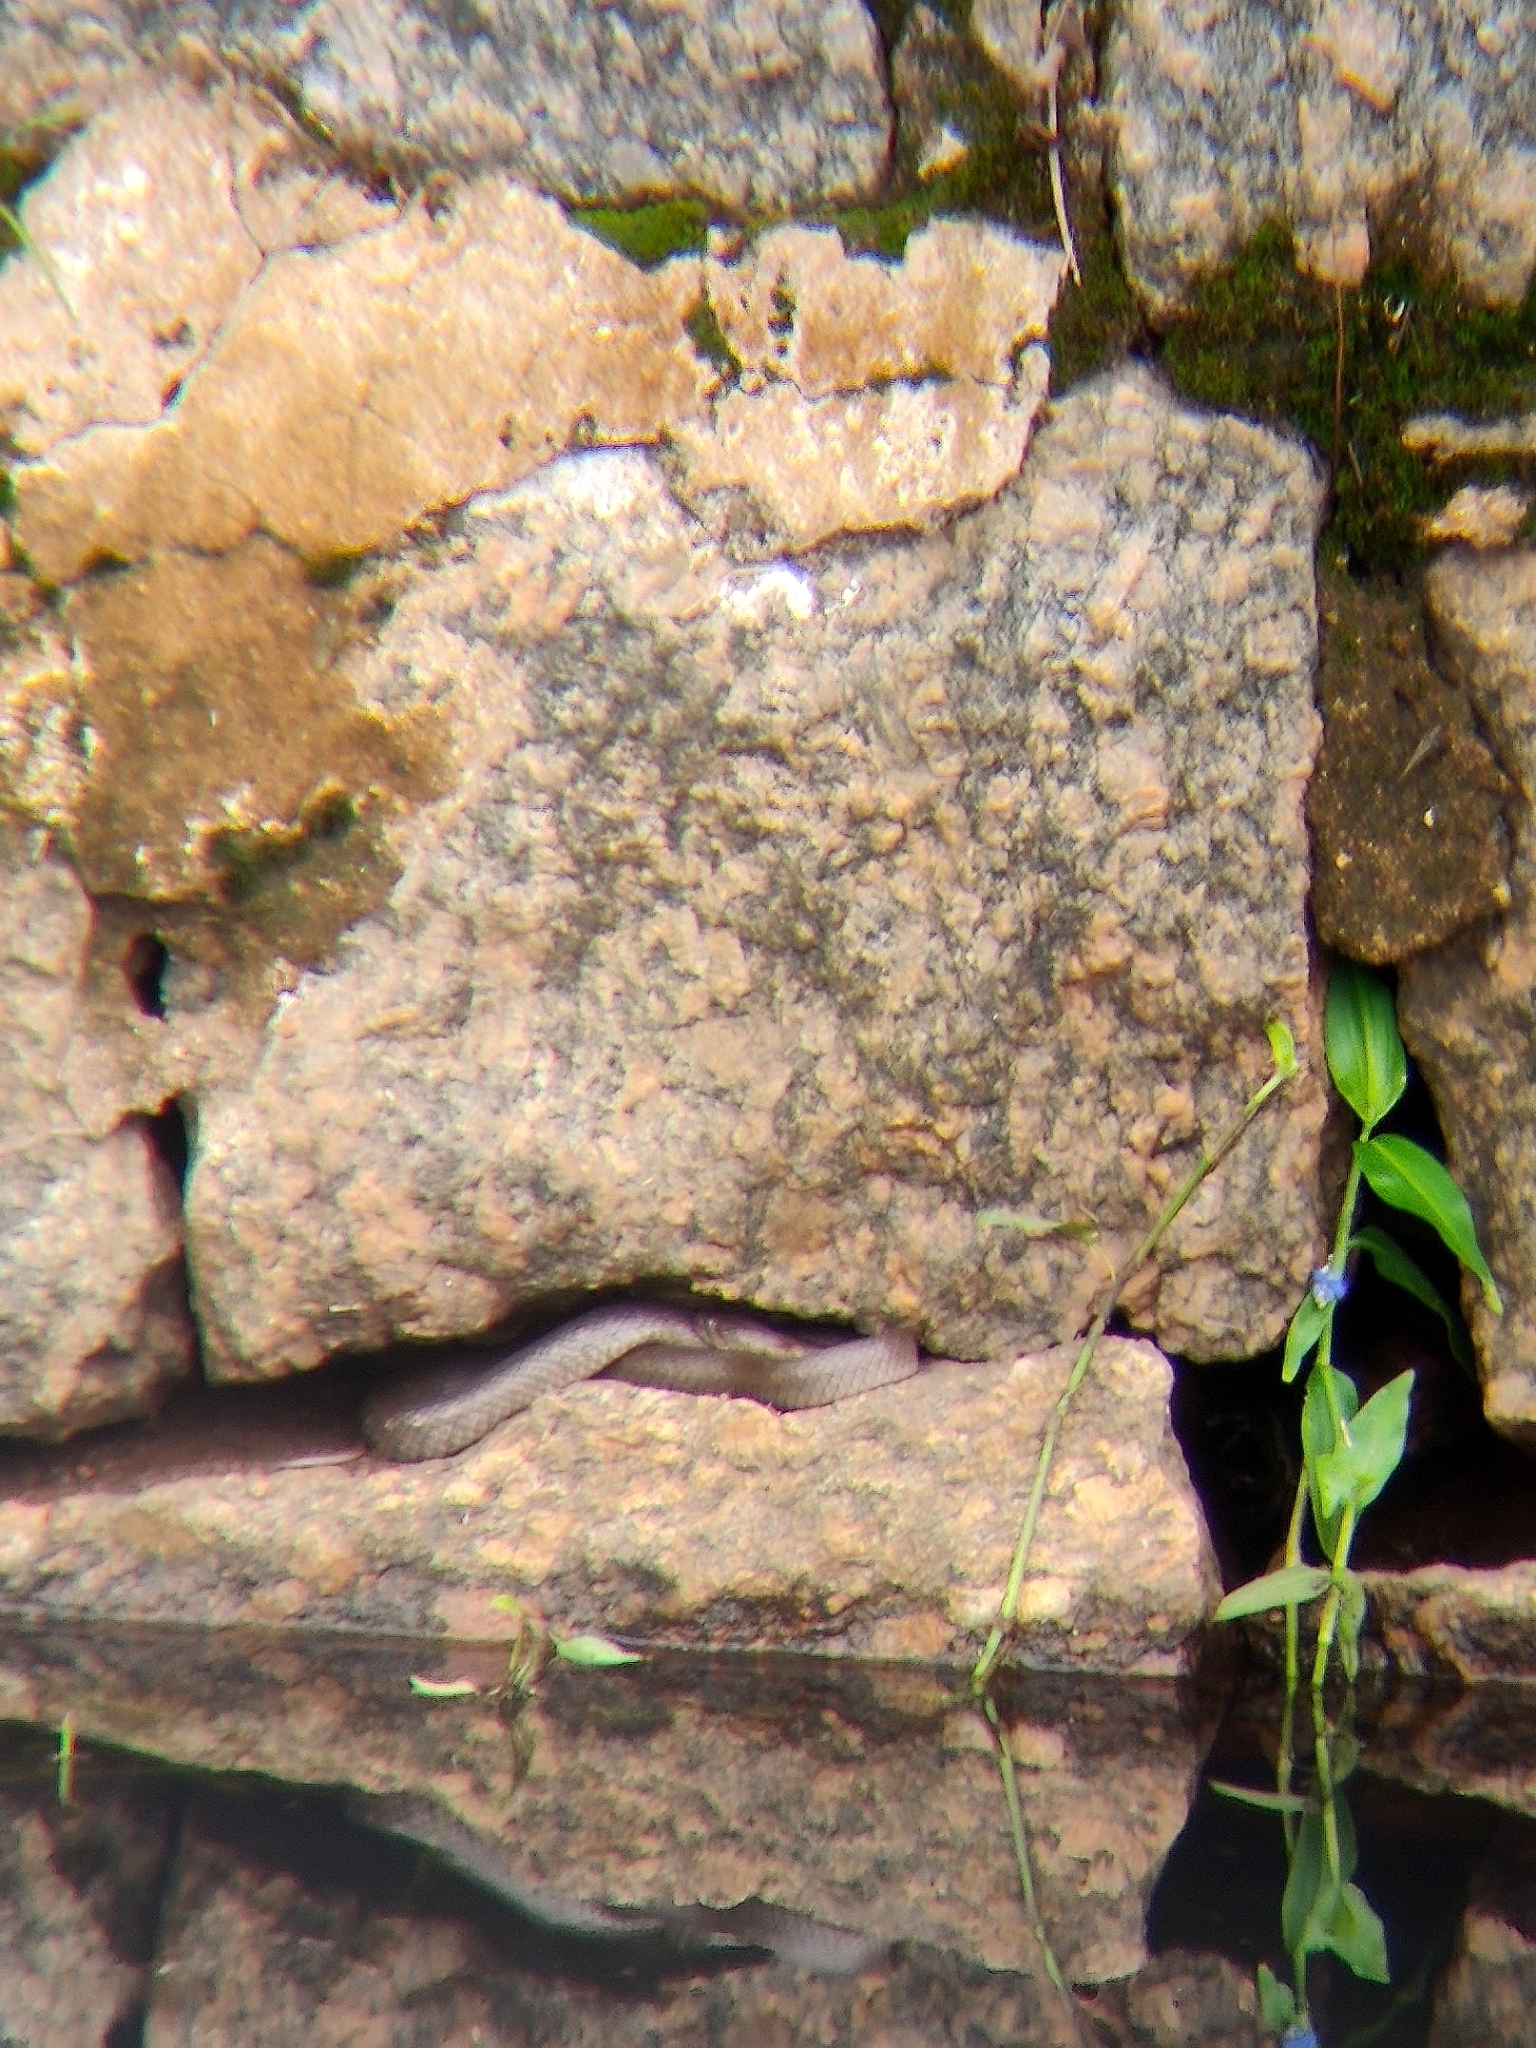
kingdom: Animalia
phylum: Chordata
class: Squamata
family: Colubridae
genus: Fowlea
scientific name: Fowlea piscator
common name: Asiatic water snake
